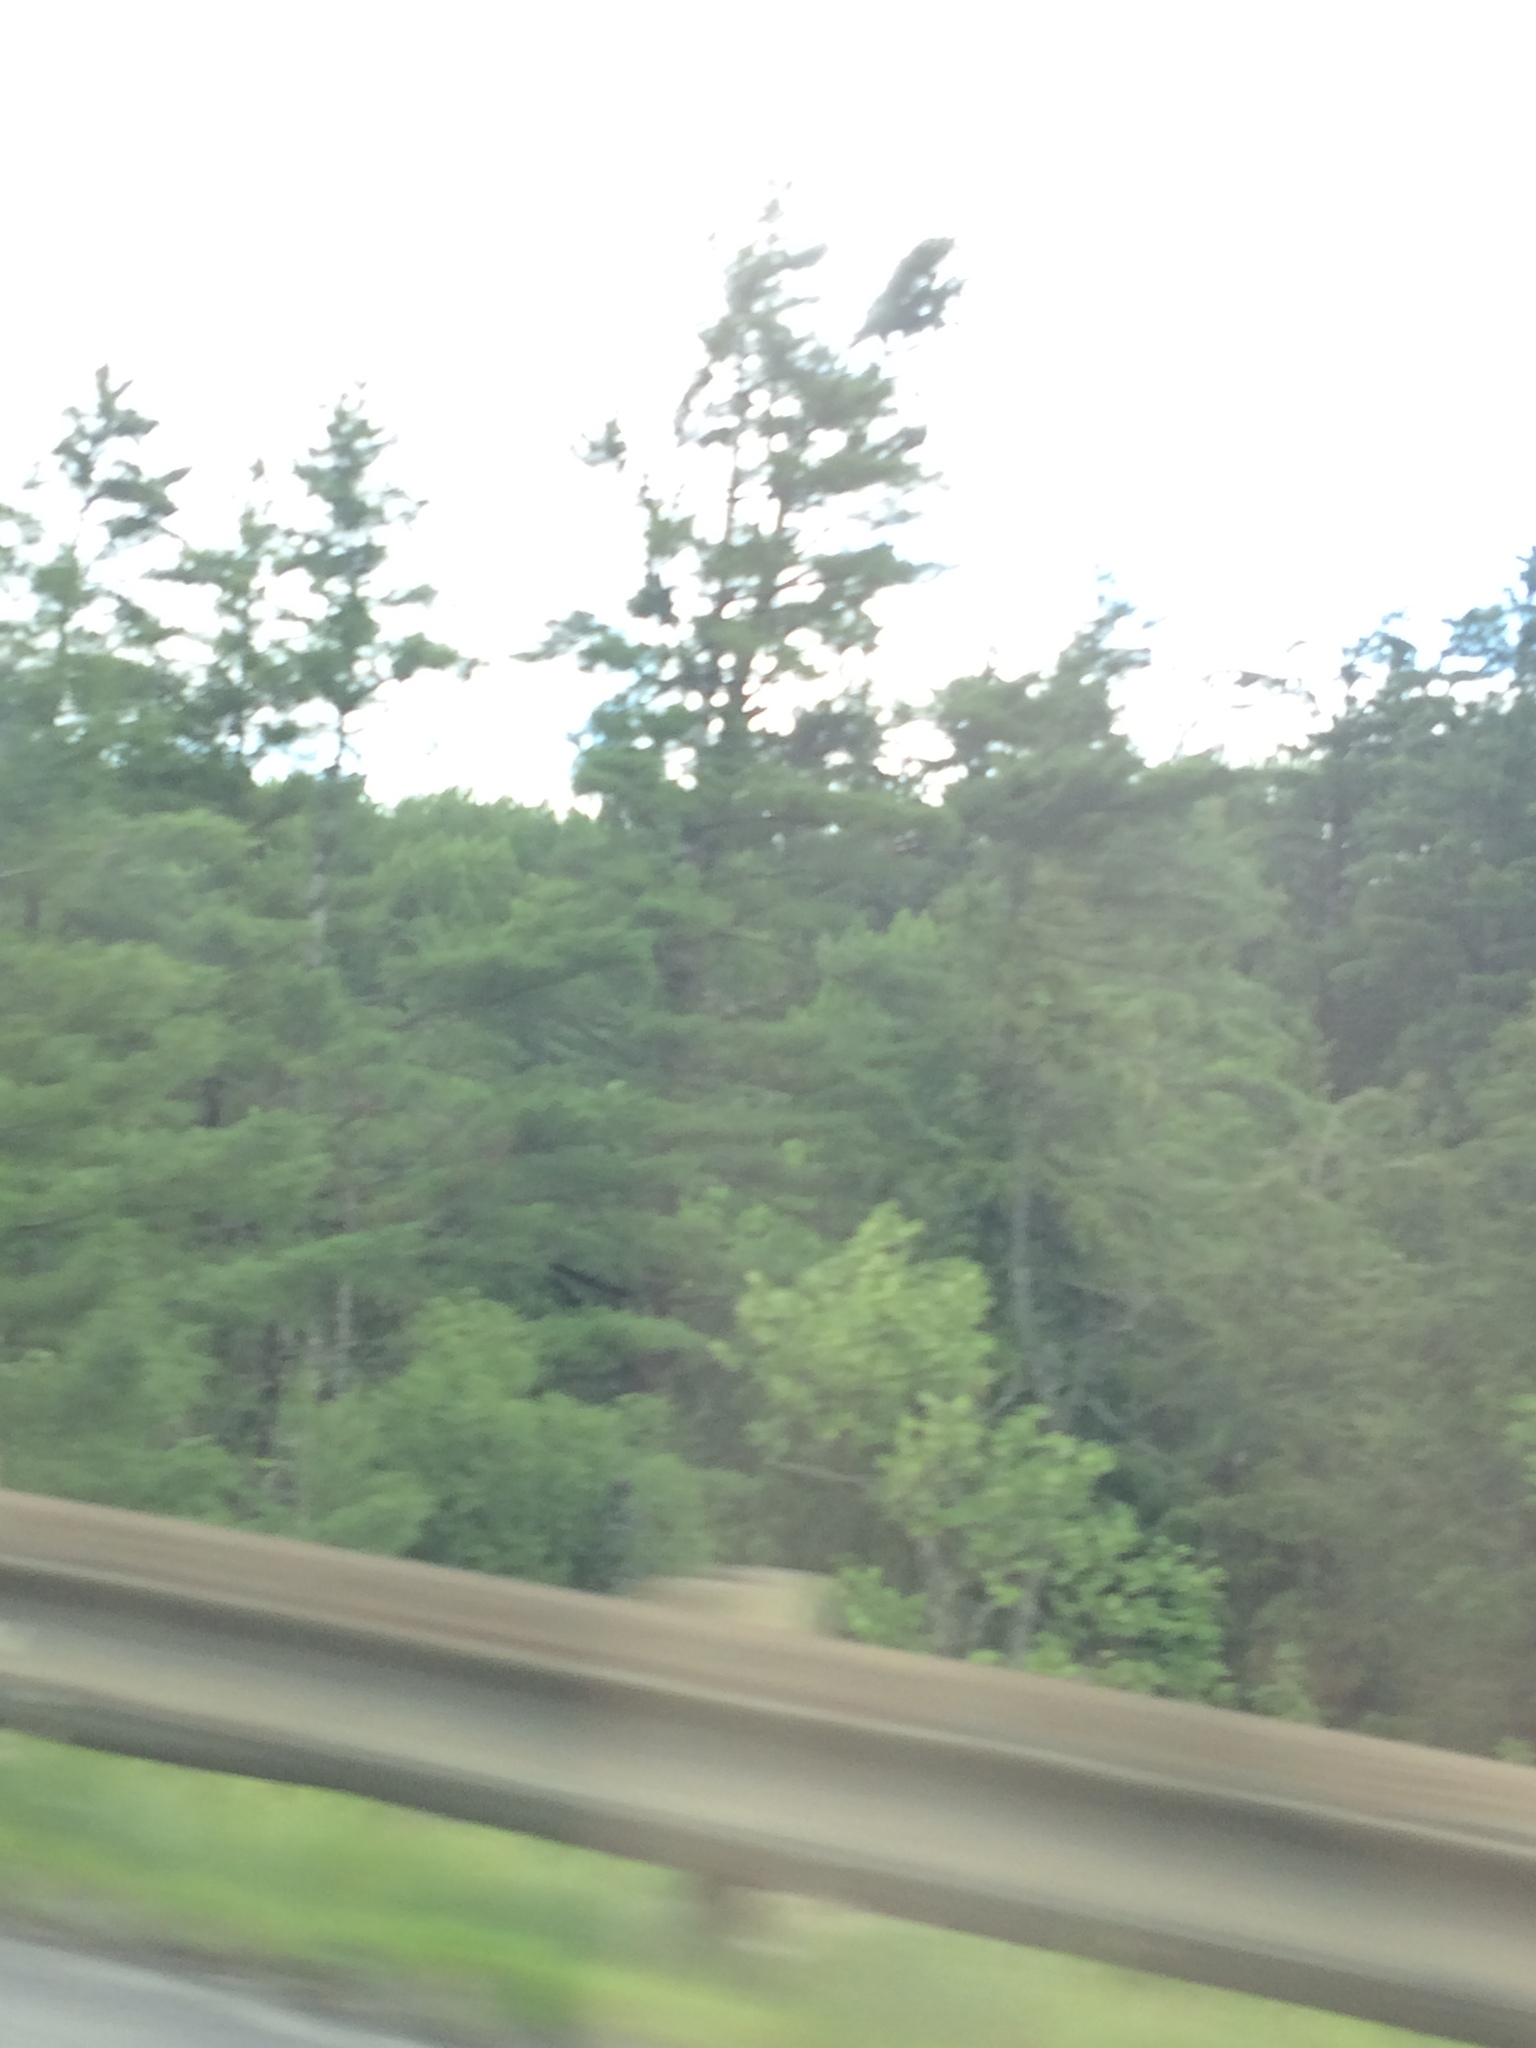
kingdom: Plantae
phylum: Tracheophyta
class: Pinopsida
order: Pinales
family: Pinaceae
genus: Pinus
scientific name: Pinus strobus
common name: Weymouth pine
